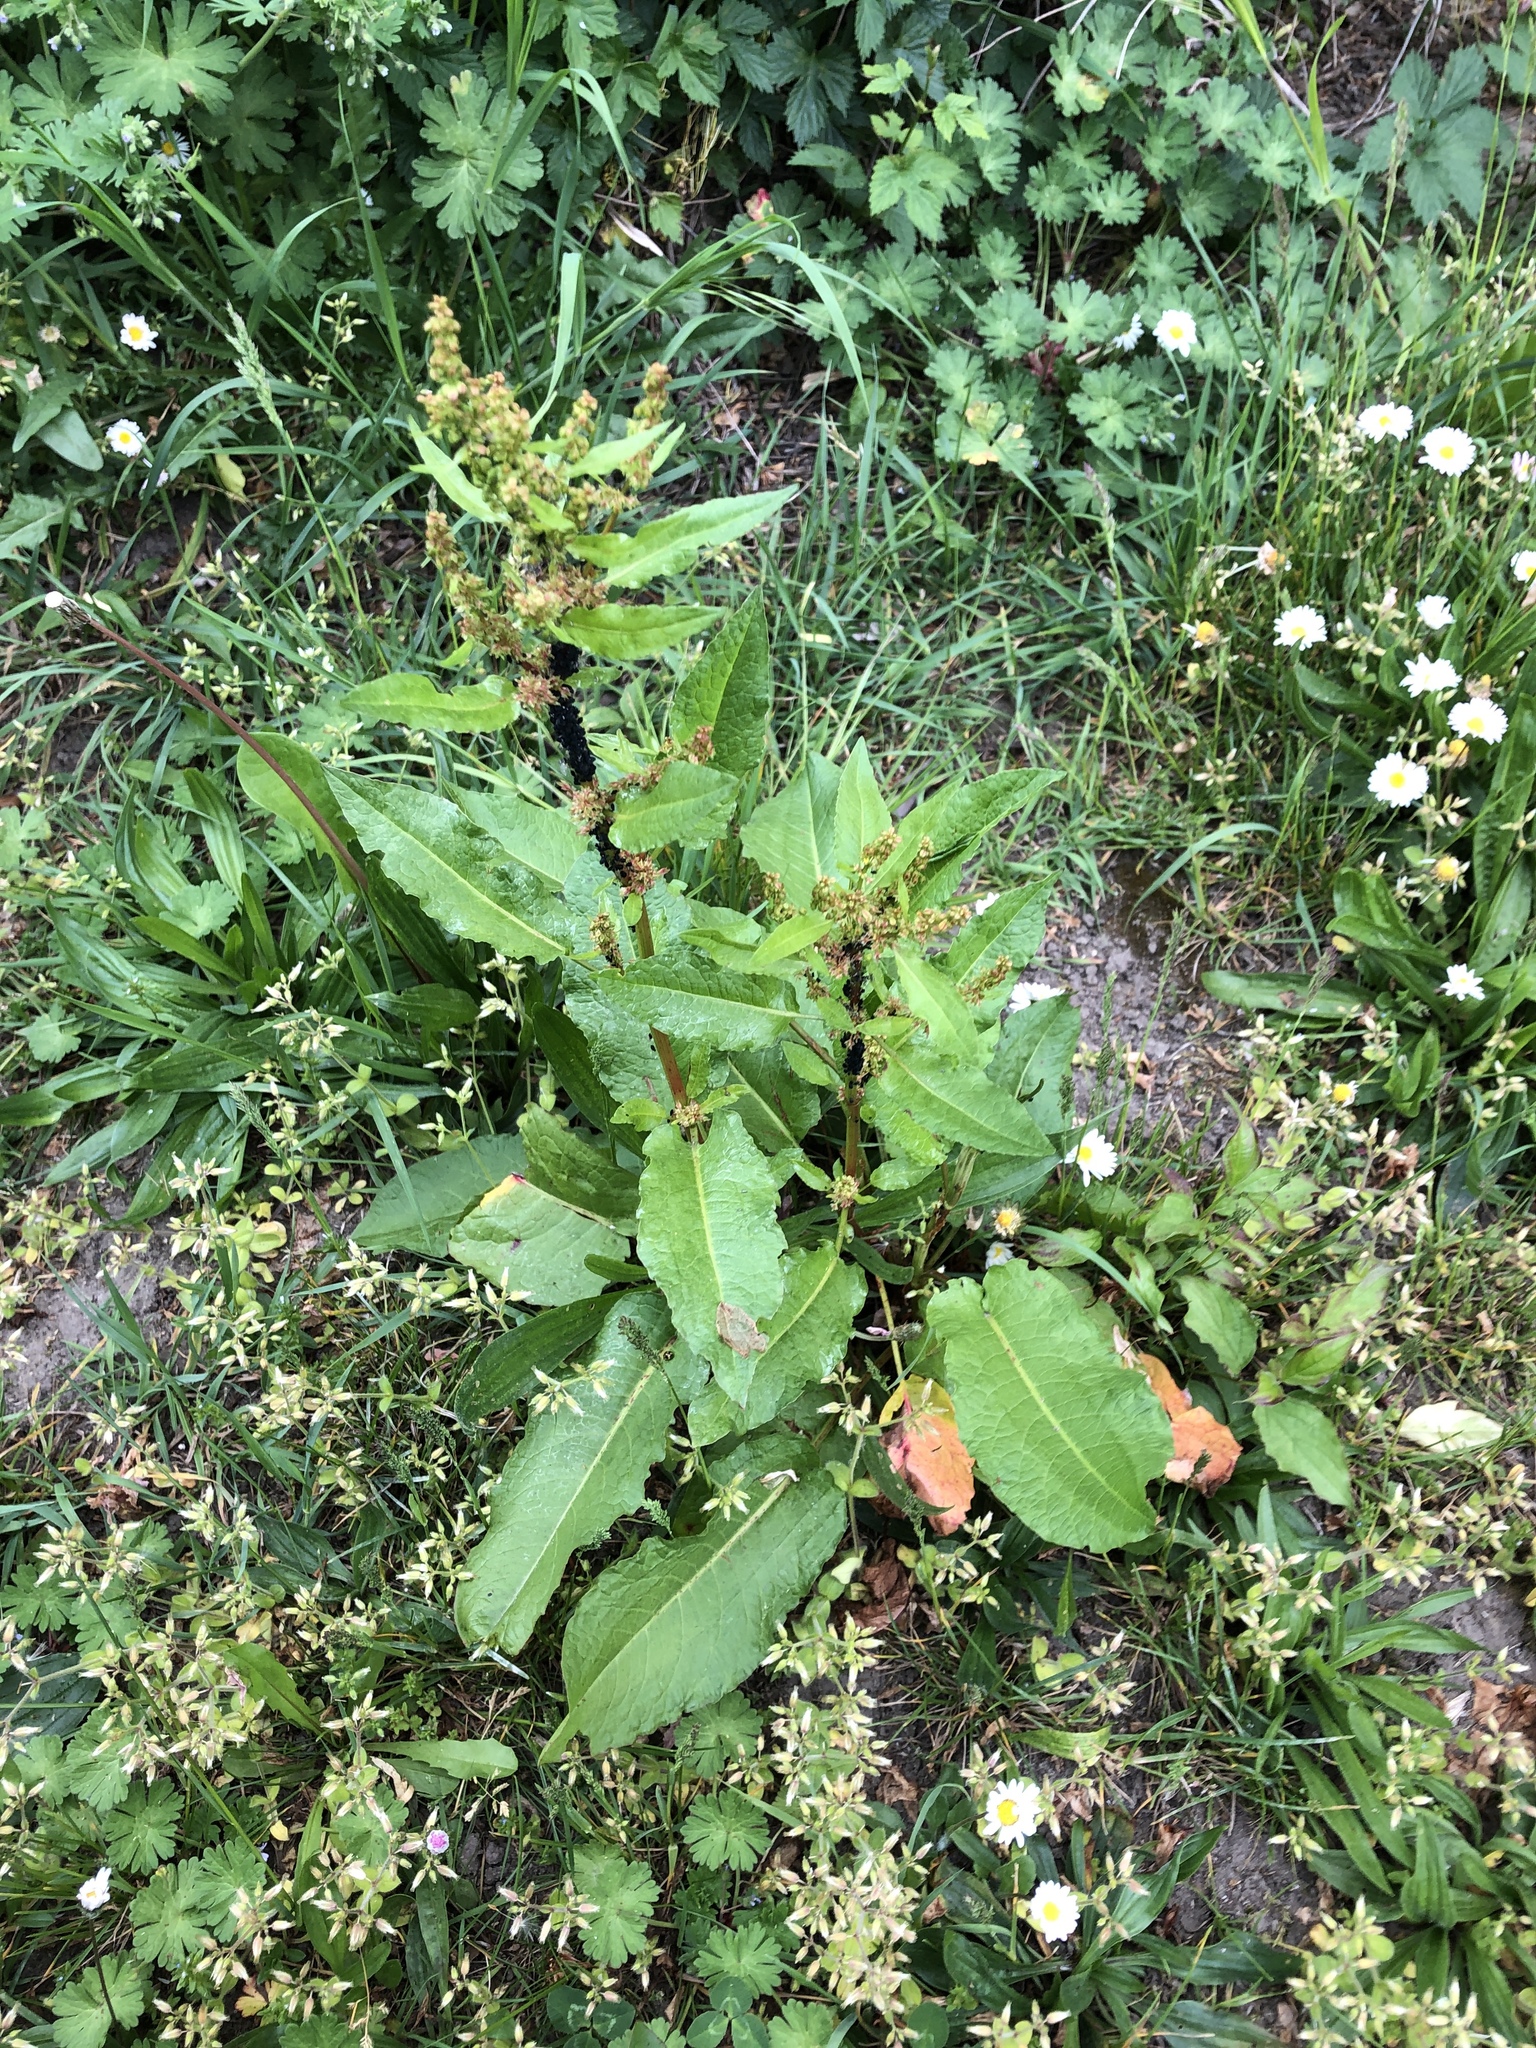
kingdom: Plantae
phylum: Tracheophyta
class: Magnoliopsida
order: Caryophyllales
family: Polygonaceae
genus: Rumex
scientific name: Rumex crispus
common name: Curled dock
